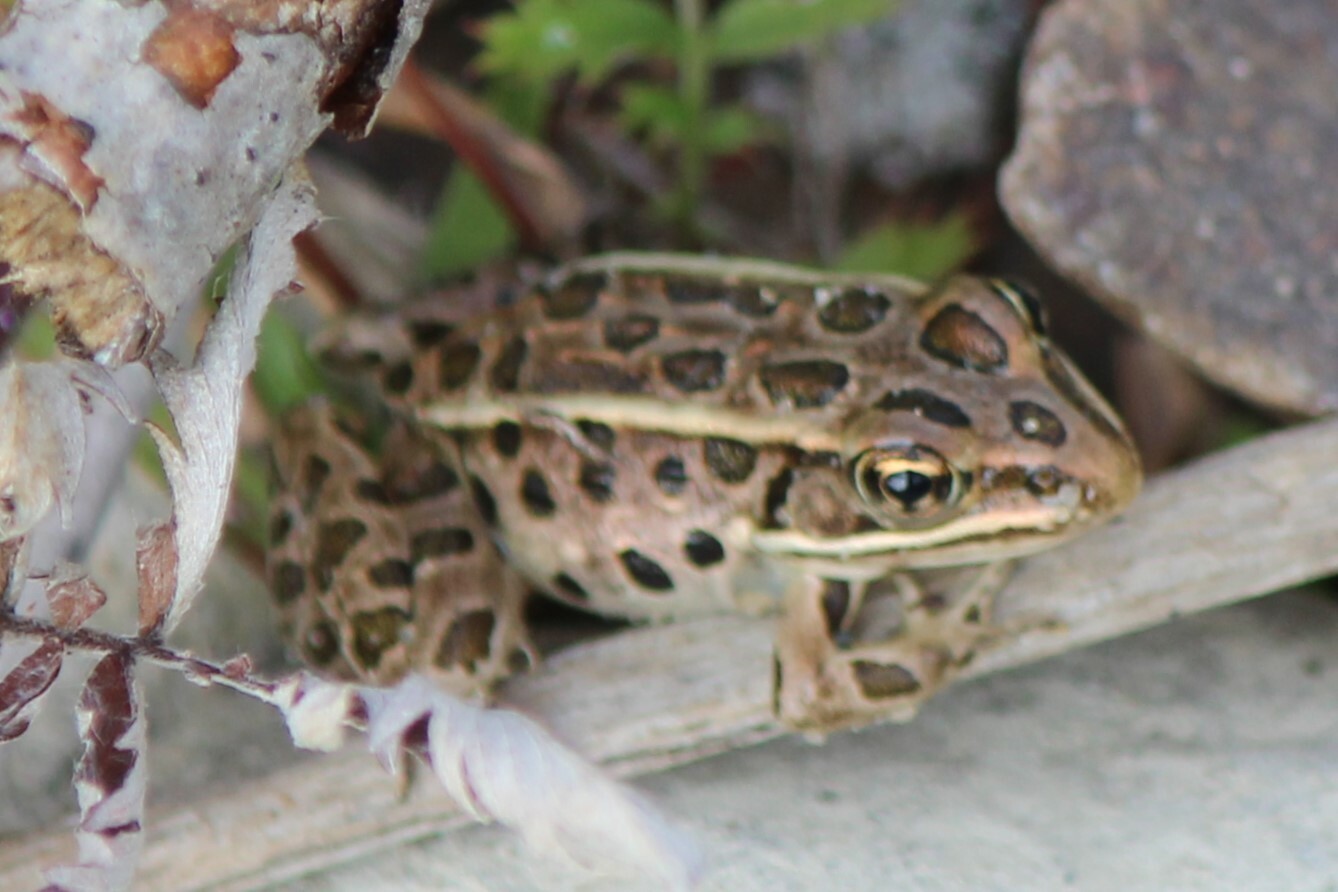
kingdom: Animalia
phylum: Chordata
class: Amphibia
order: Anura
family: Ranidae
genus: Lithobates
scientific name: Lithobates pipiens
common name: Northern leopard frog
